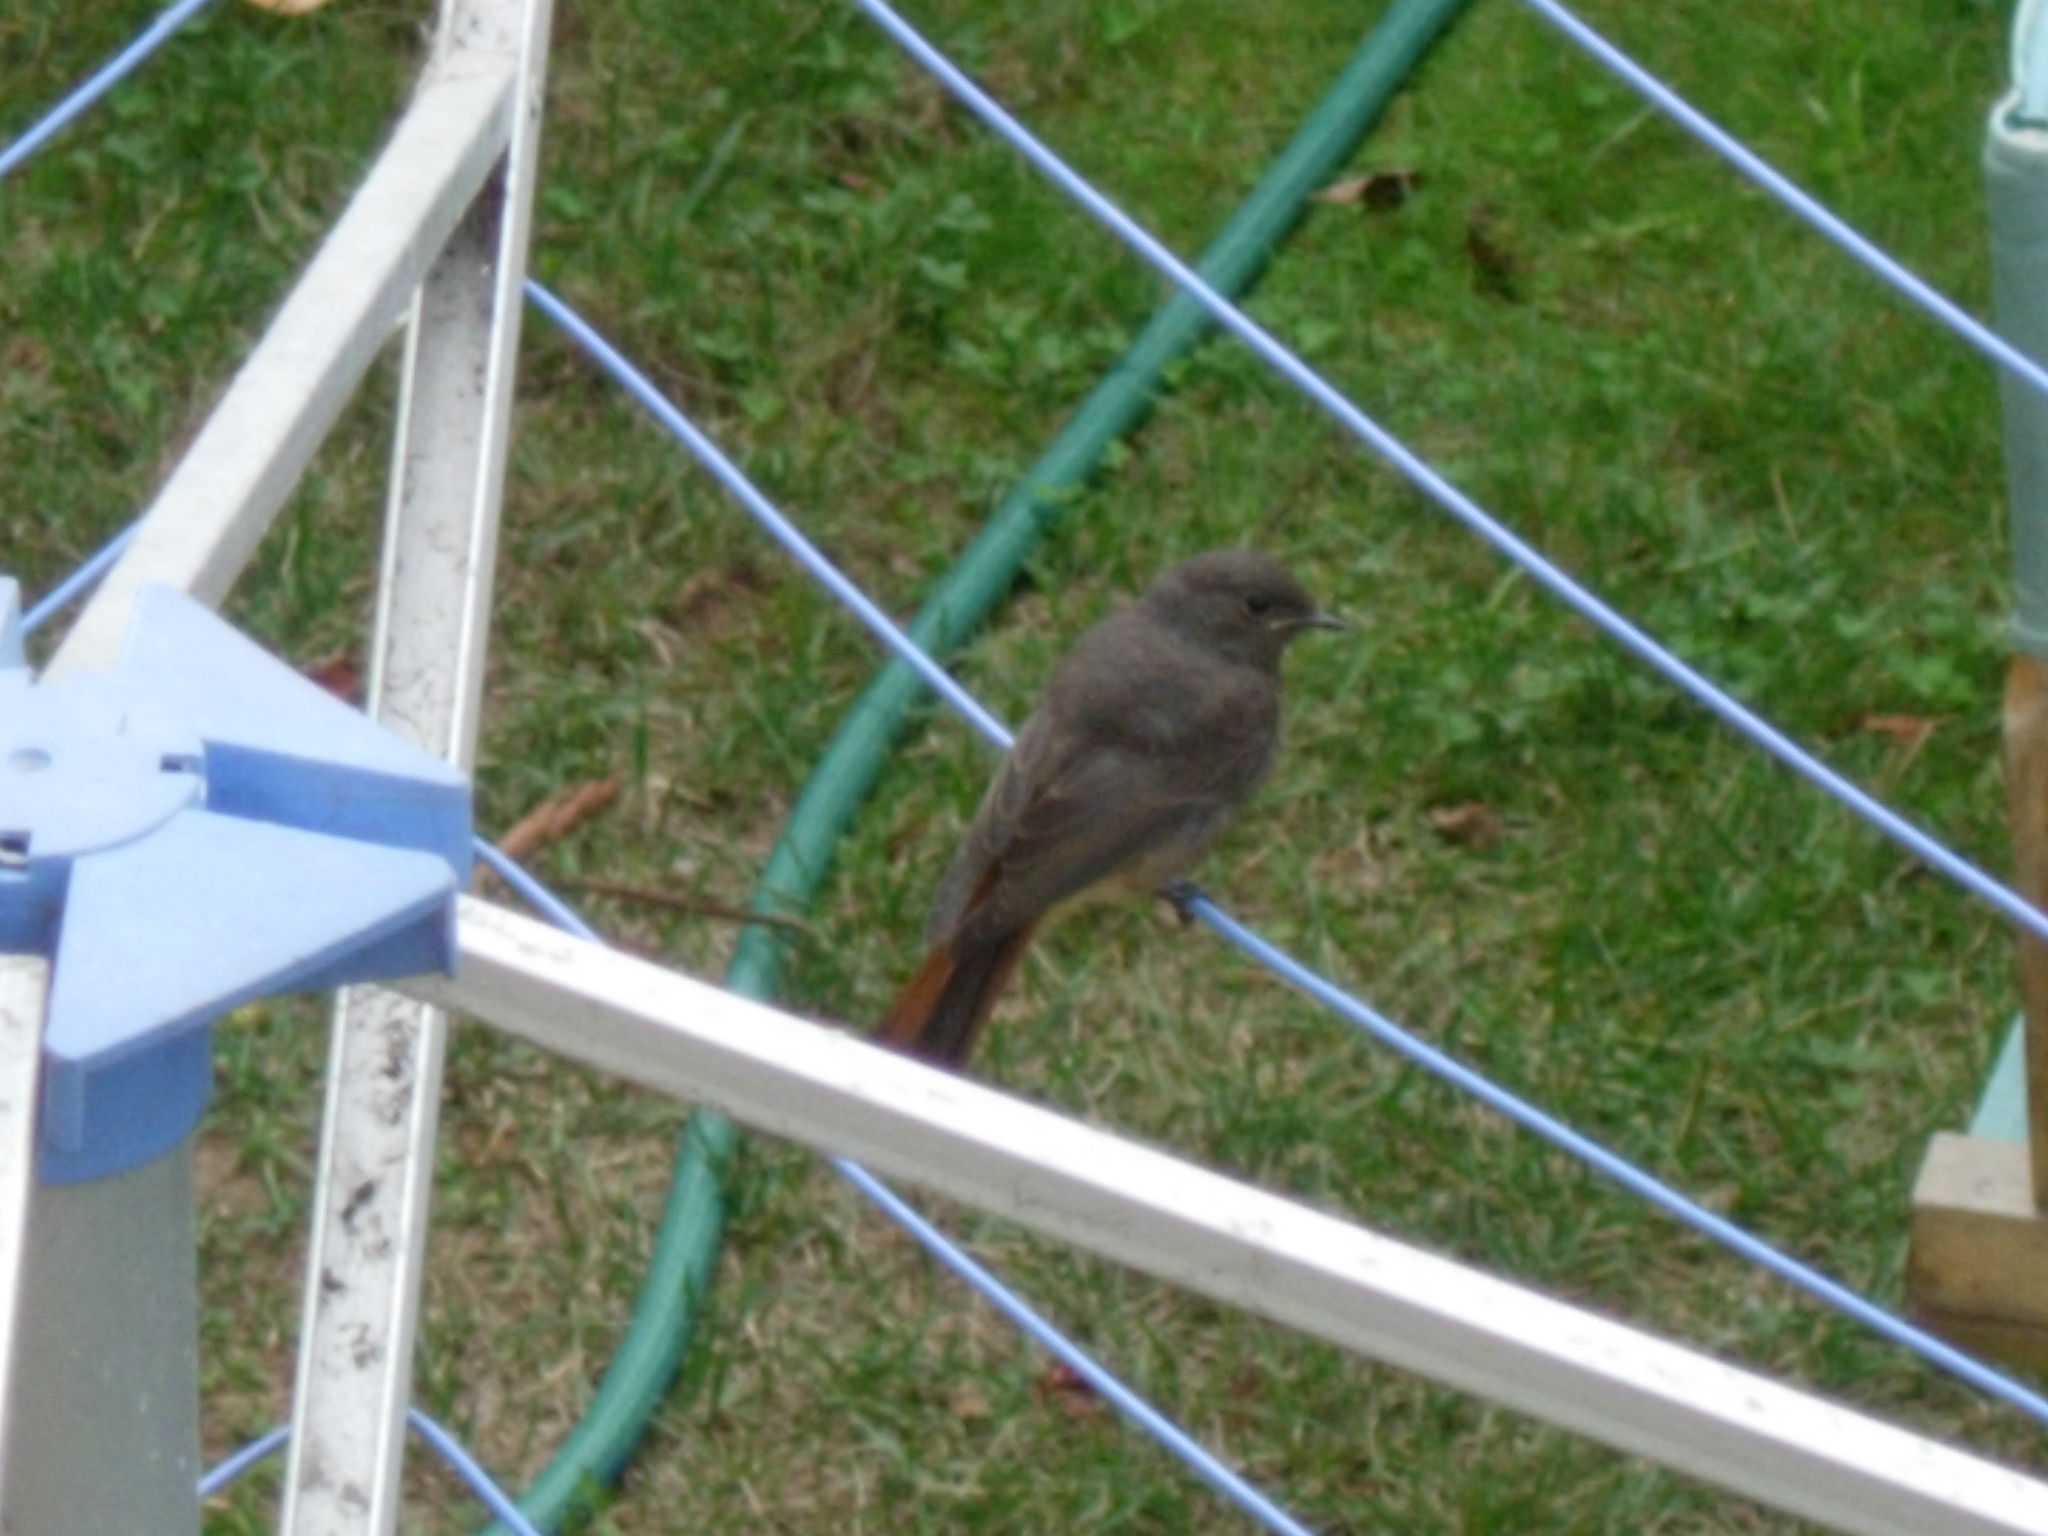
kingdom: Animalia
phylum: Chordata
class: Aves
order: Passeriformes
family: Muscicapidae
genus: Phoenicurus
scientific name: Phoenicurus ochruros
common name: Black redstart
